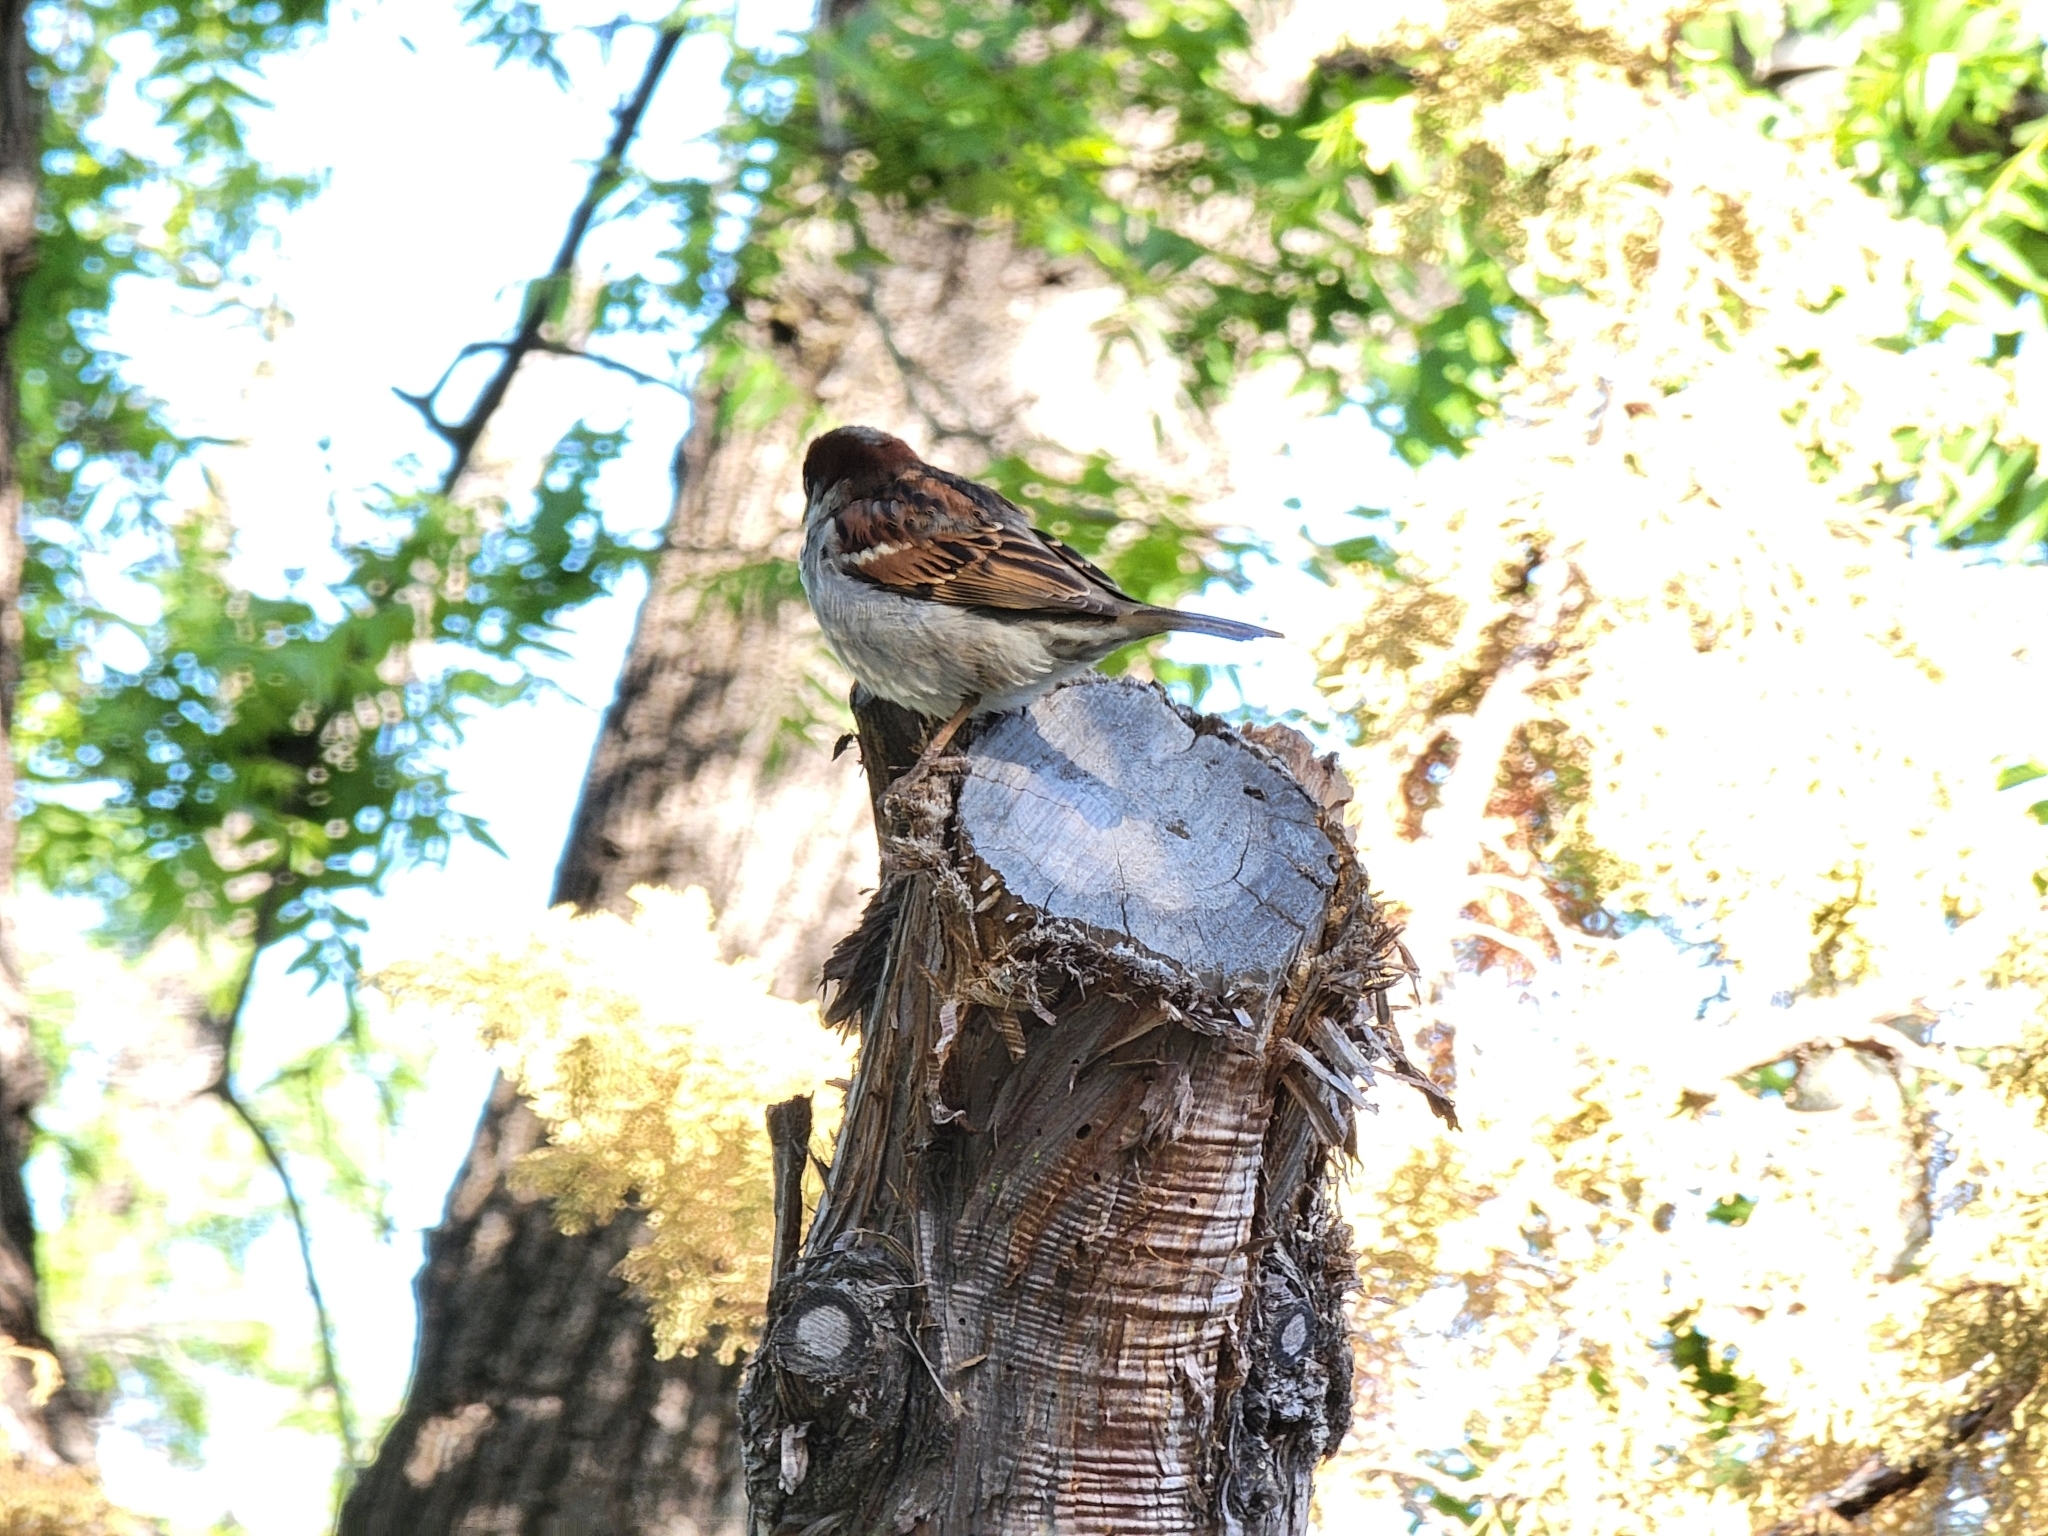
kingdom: Animalia
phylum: Chordata
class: Aves
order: Passeriformes
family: Passeridae
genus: Passer
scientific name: Passer domesticus
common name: House sparrow
